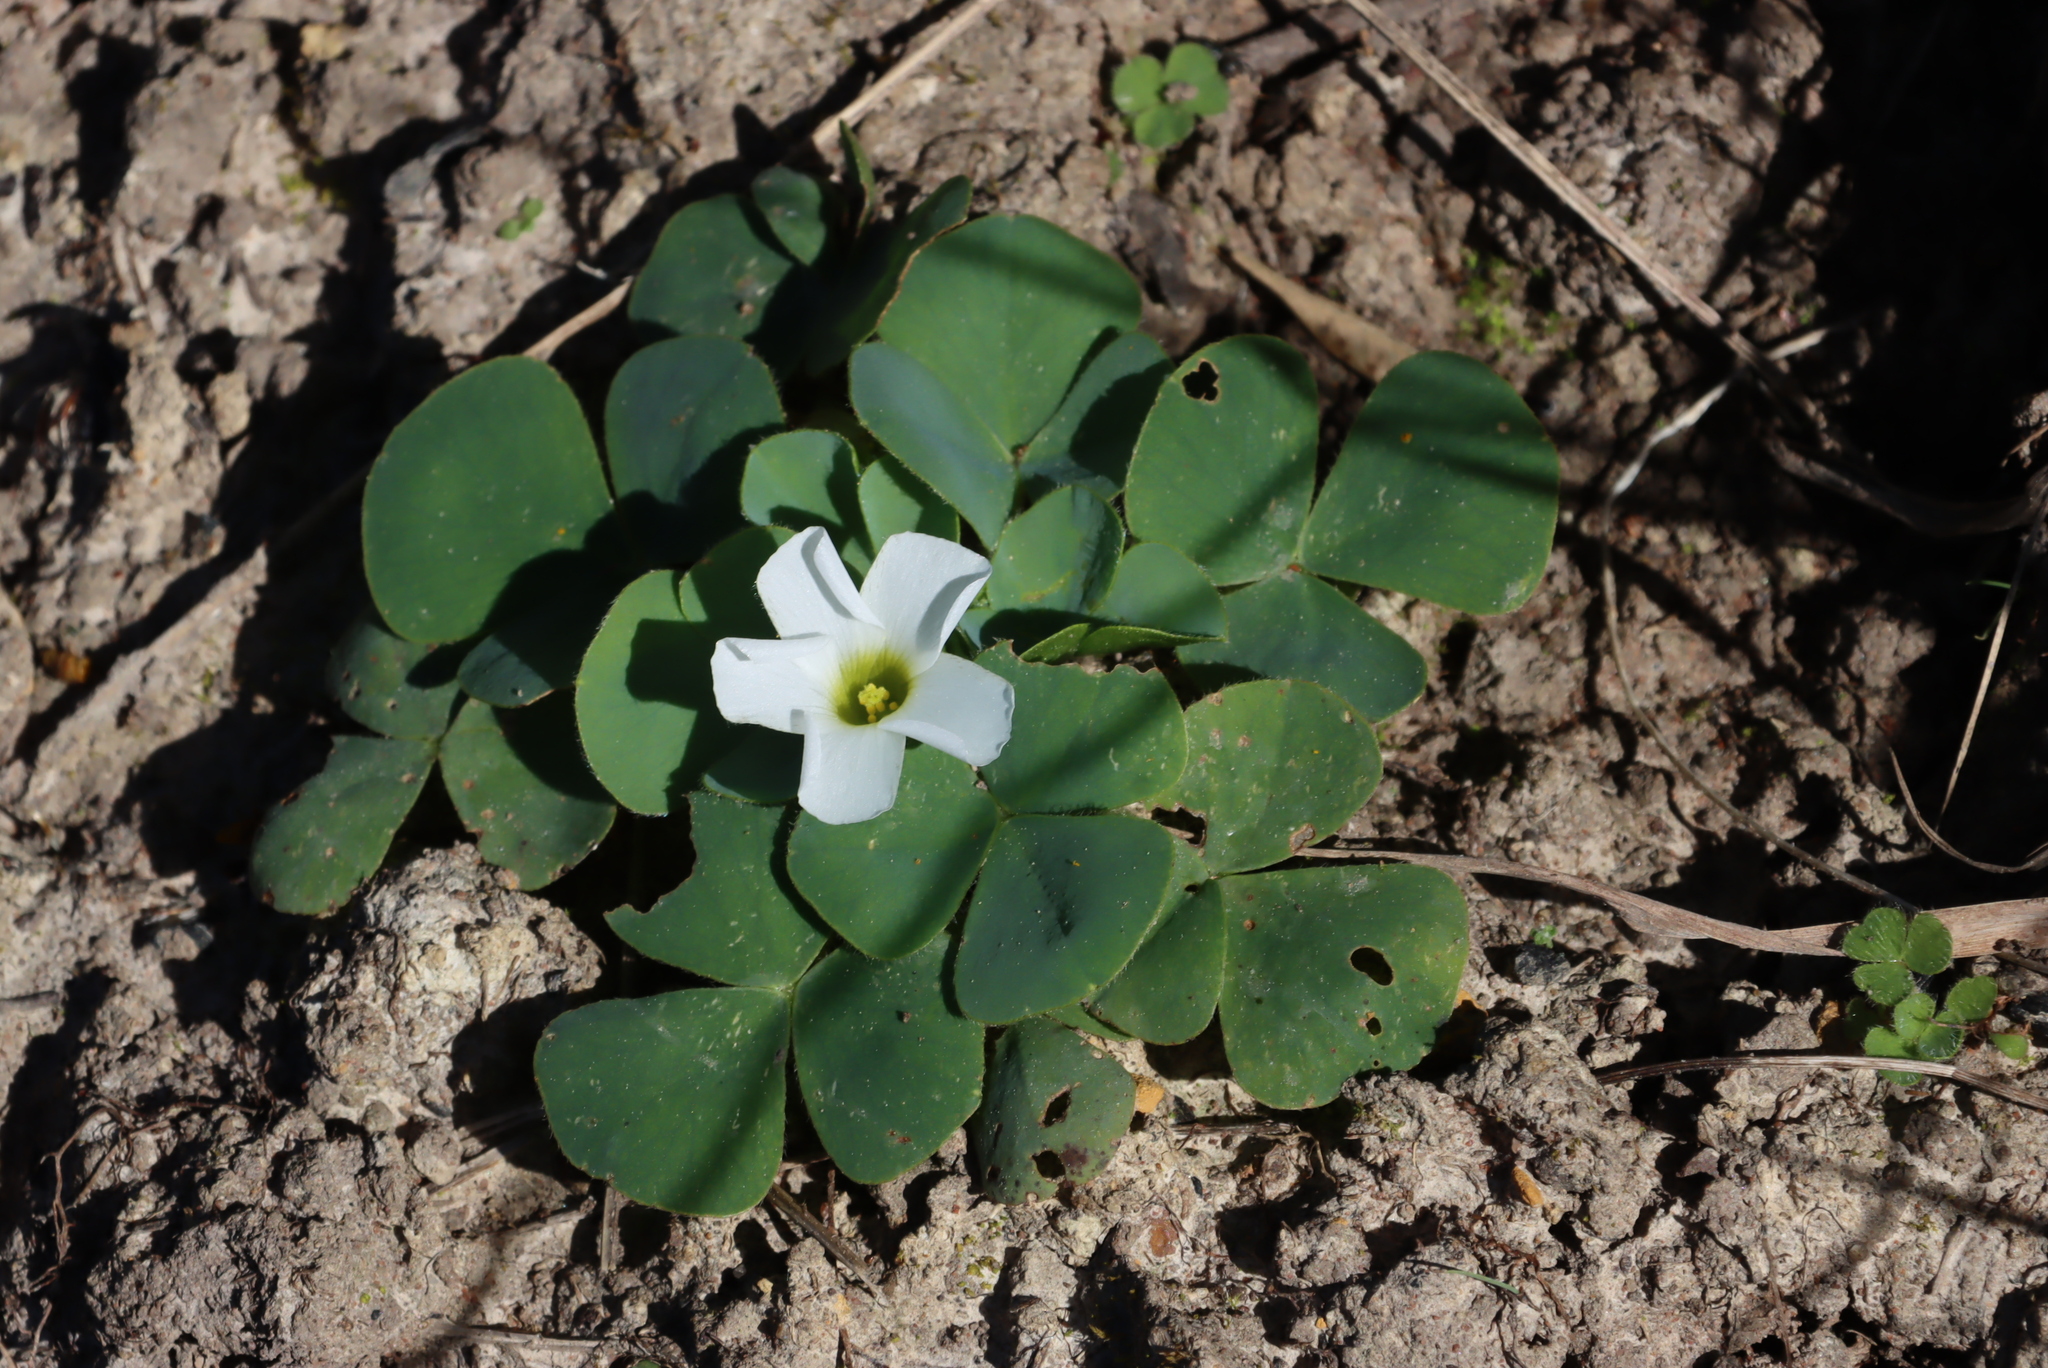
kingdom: Plantae
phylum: Tracheophyta
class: Magnoliopsida
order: Oxalidales
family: Oxalidaceae
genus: Oxalis
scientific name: Oxalis purpurea
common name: Purple woodsorrel
